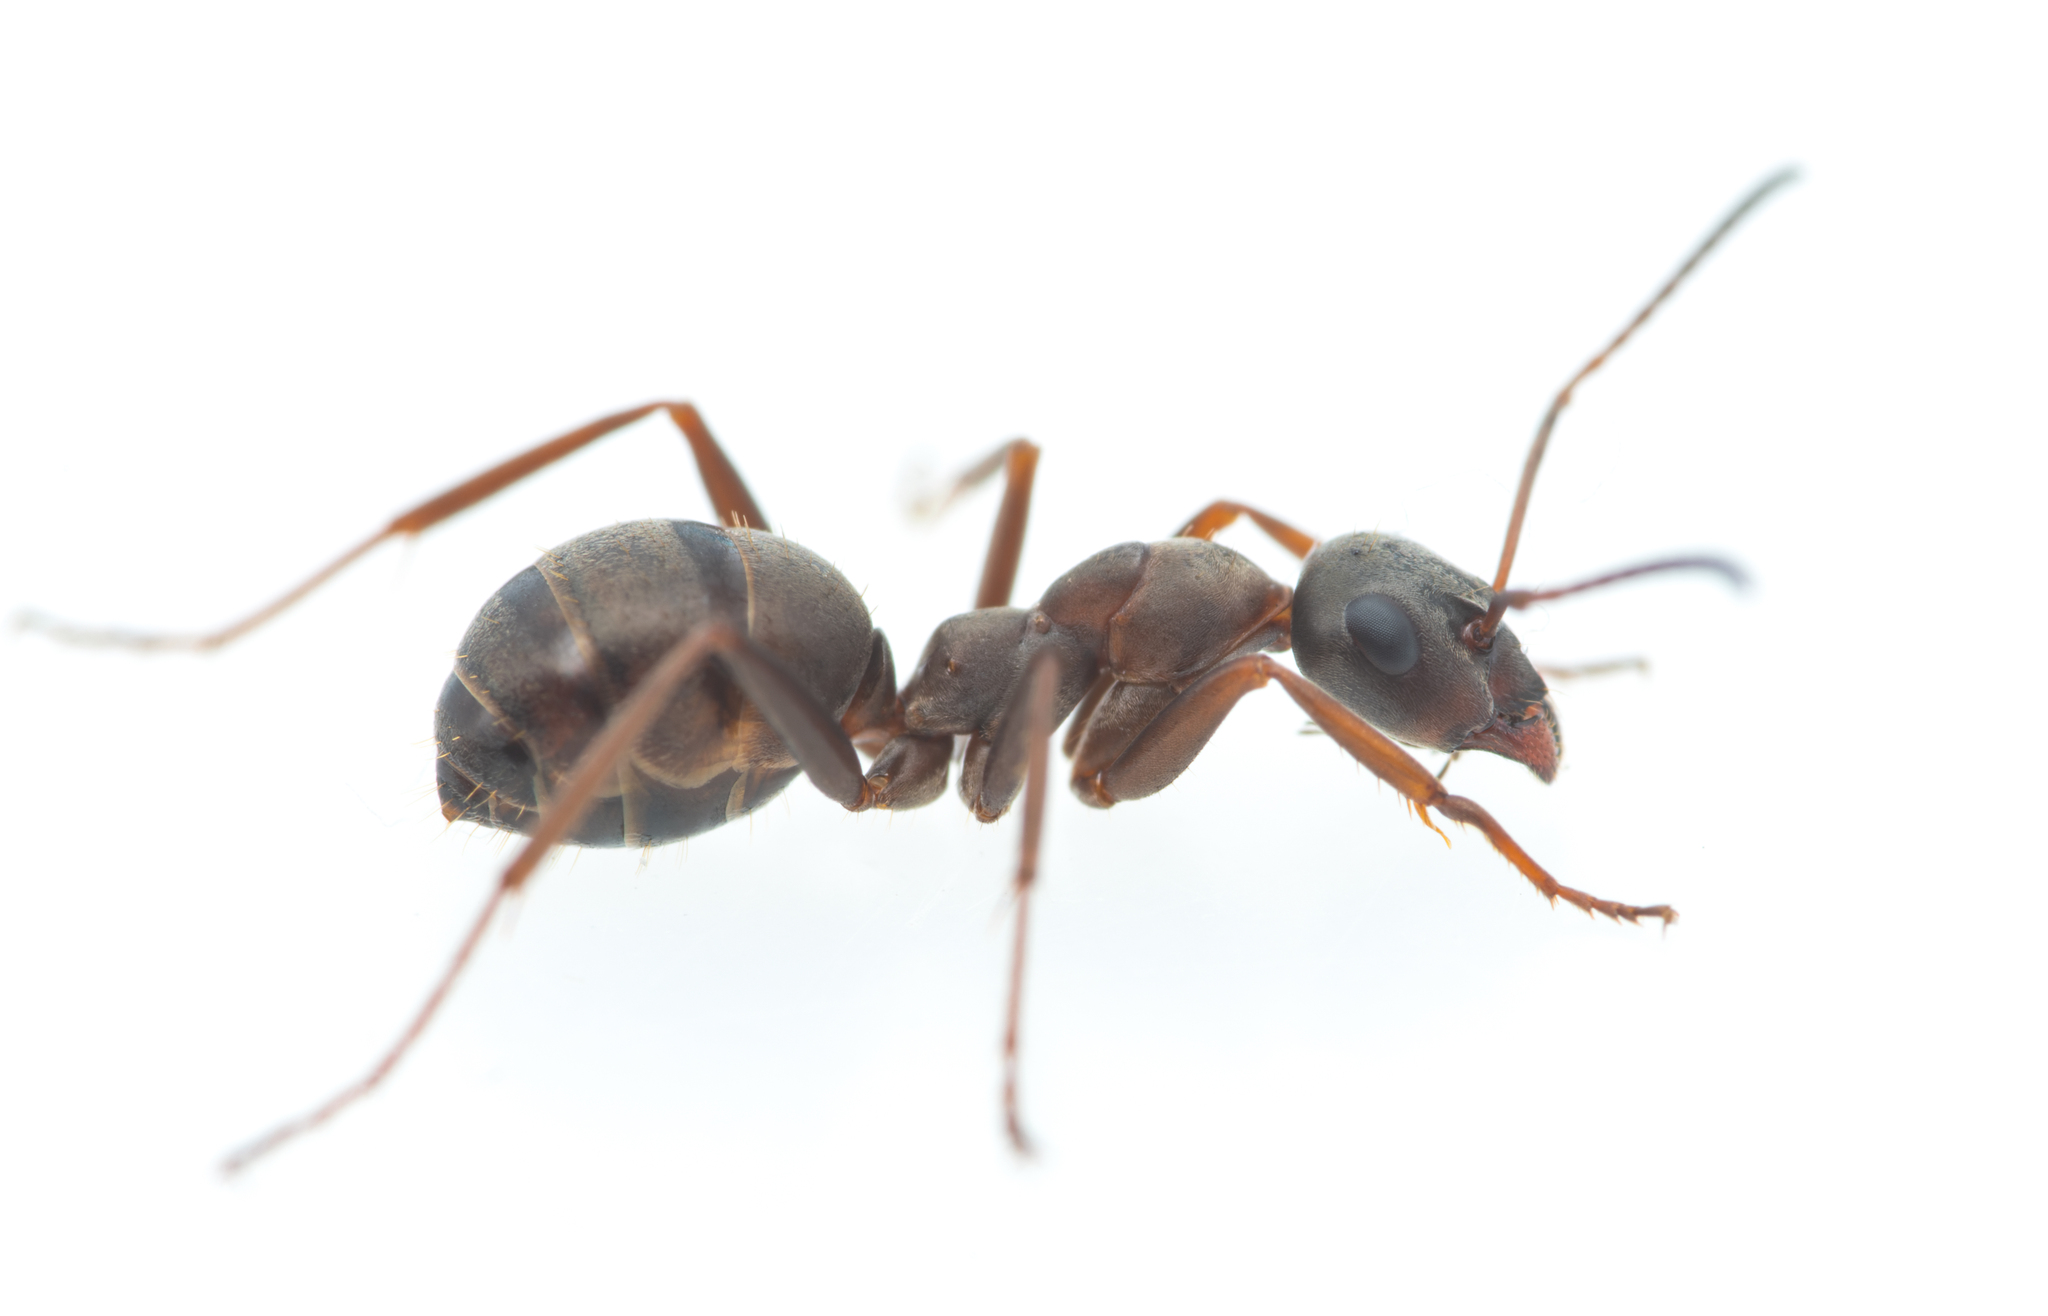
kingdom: Animalia
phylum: Arthropoda
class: Insecta
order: Hymenoptera
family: Formicidae
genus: Formica
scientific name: Formica cunicularia
